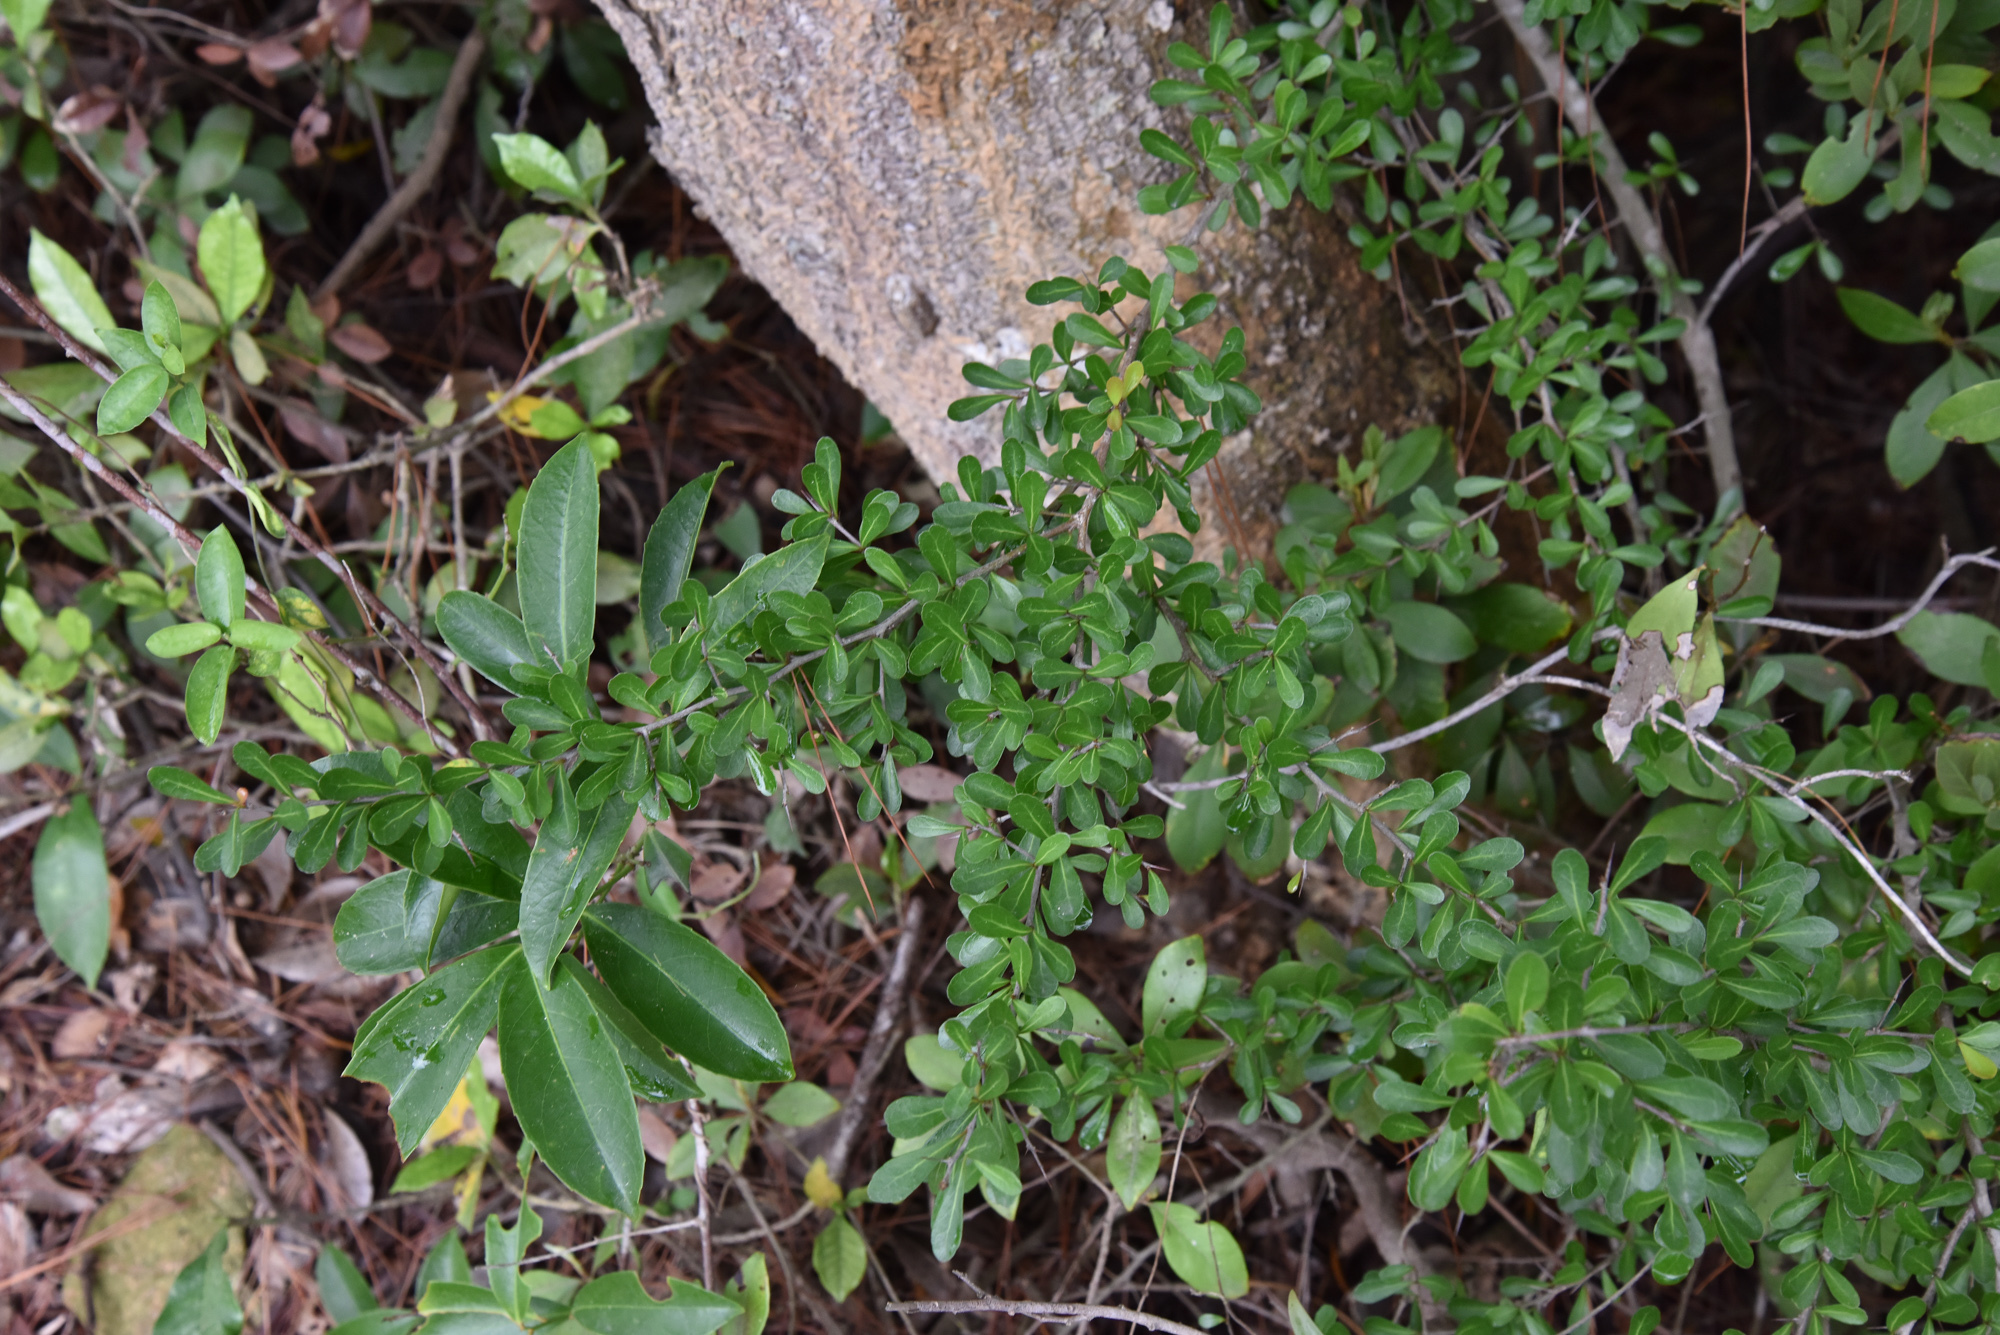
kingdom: Plantae
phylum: Tracheophyta
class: Magnoliopsida
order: Celastrales
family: Celastraceae
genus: Gymnosporia
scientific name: Gymnosporia diversifolia
